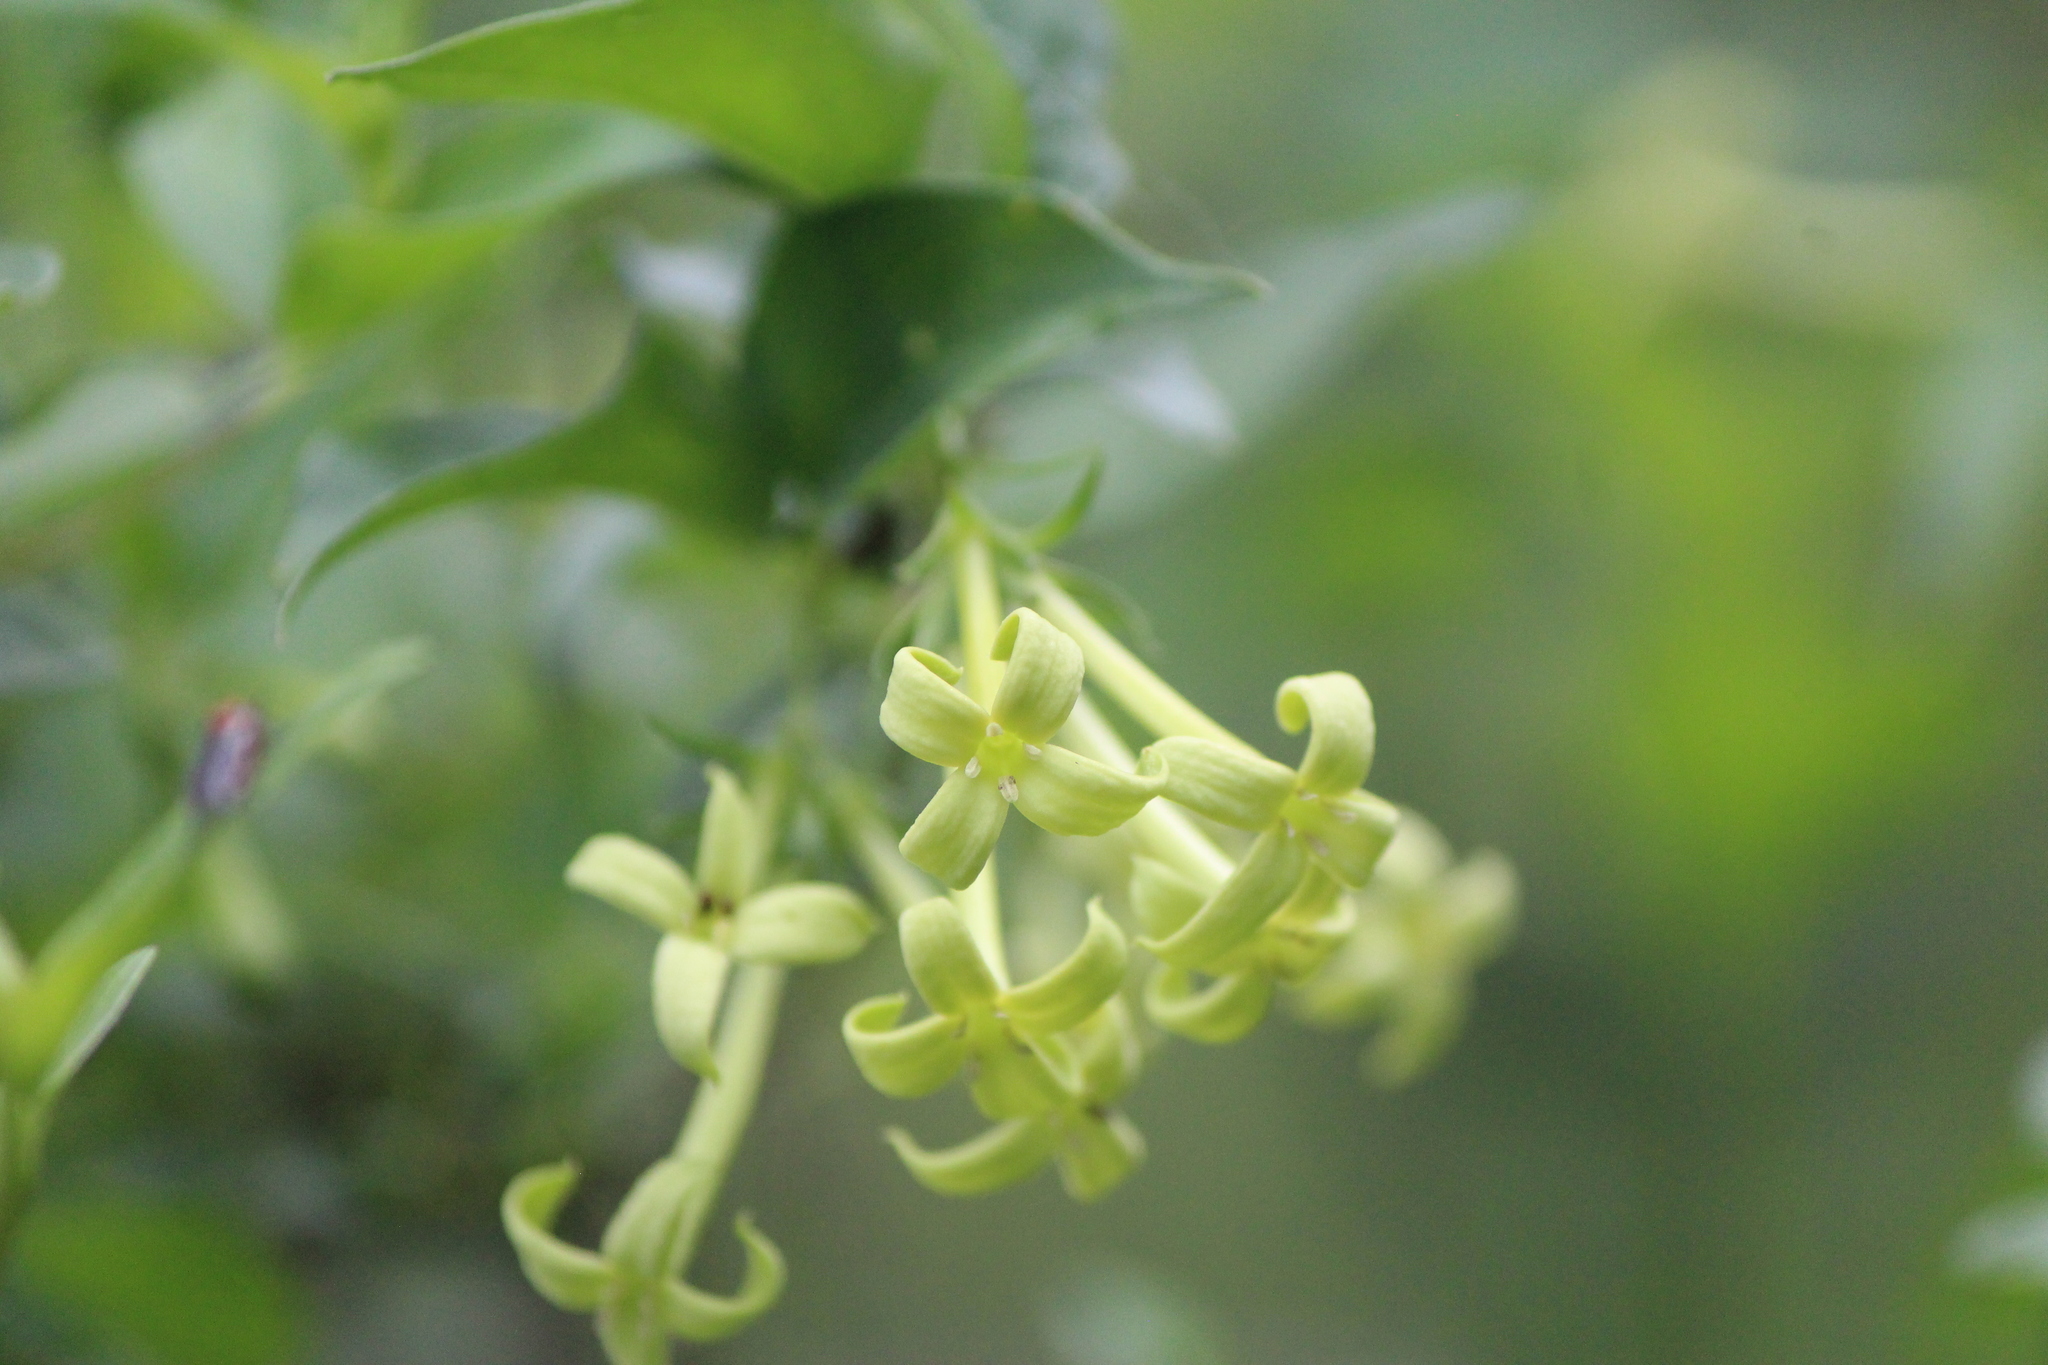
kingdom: Plantae
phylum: Tracheophyta
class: Magnoliopsida
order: Gentianales
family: Rubiaceae
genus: Bouvardia
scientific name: Bouvardia glabra
